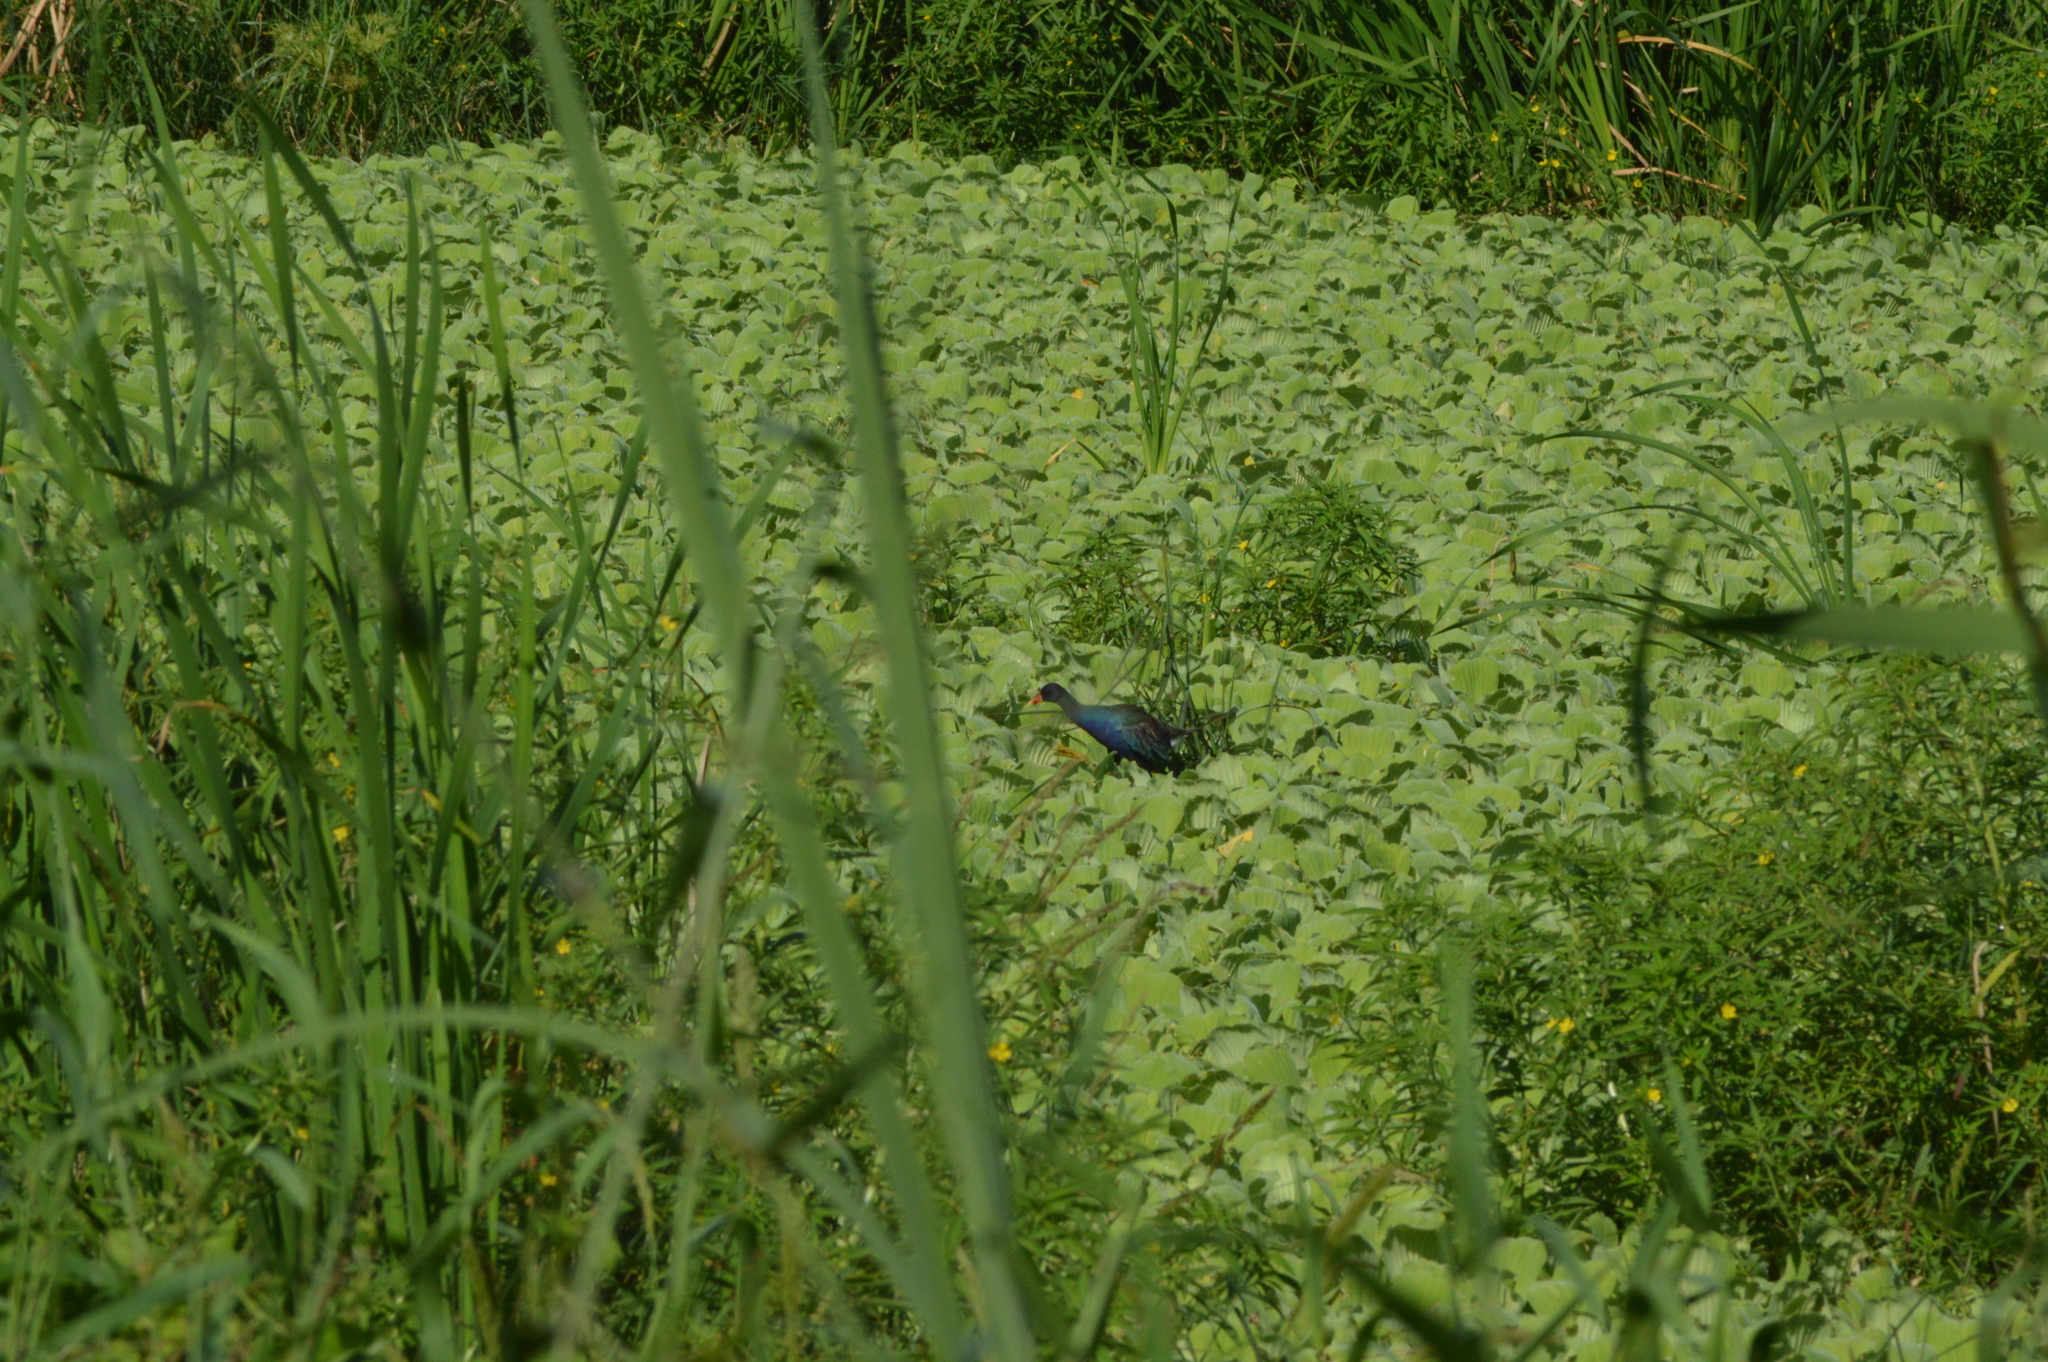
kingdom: Animalia
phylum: Chordata
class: Aves
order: Gruiformes
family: Rallidae
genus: Porphyrio
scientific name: Porphyrio martinica
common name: Purple gallinule
